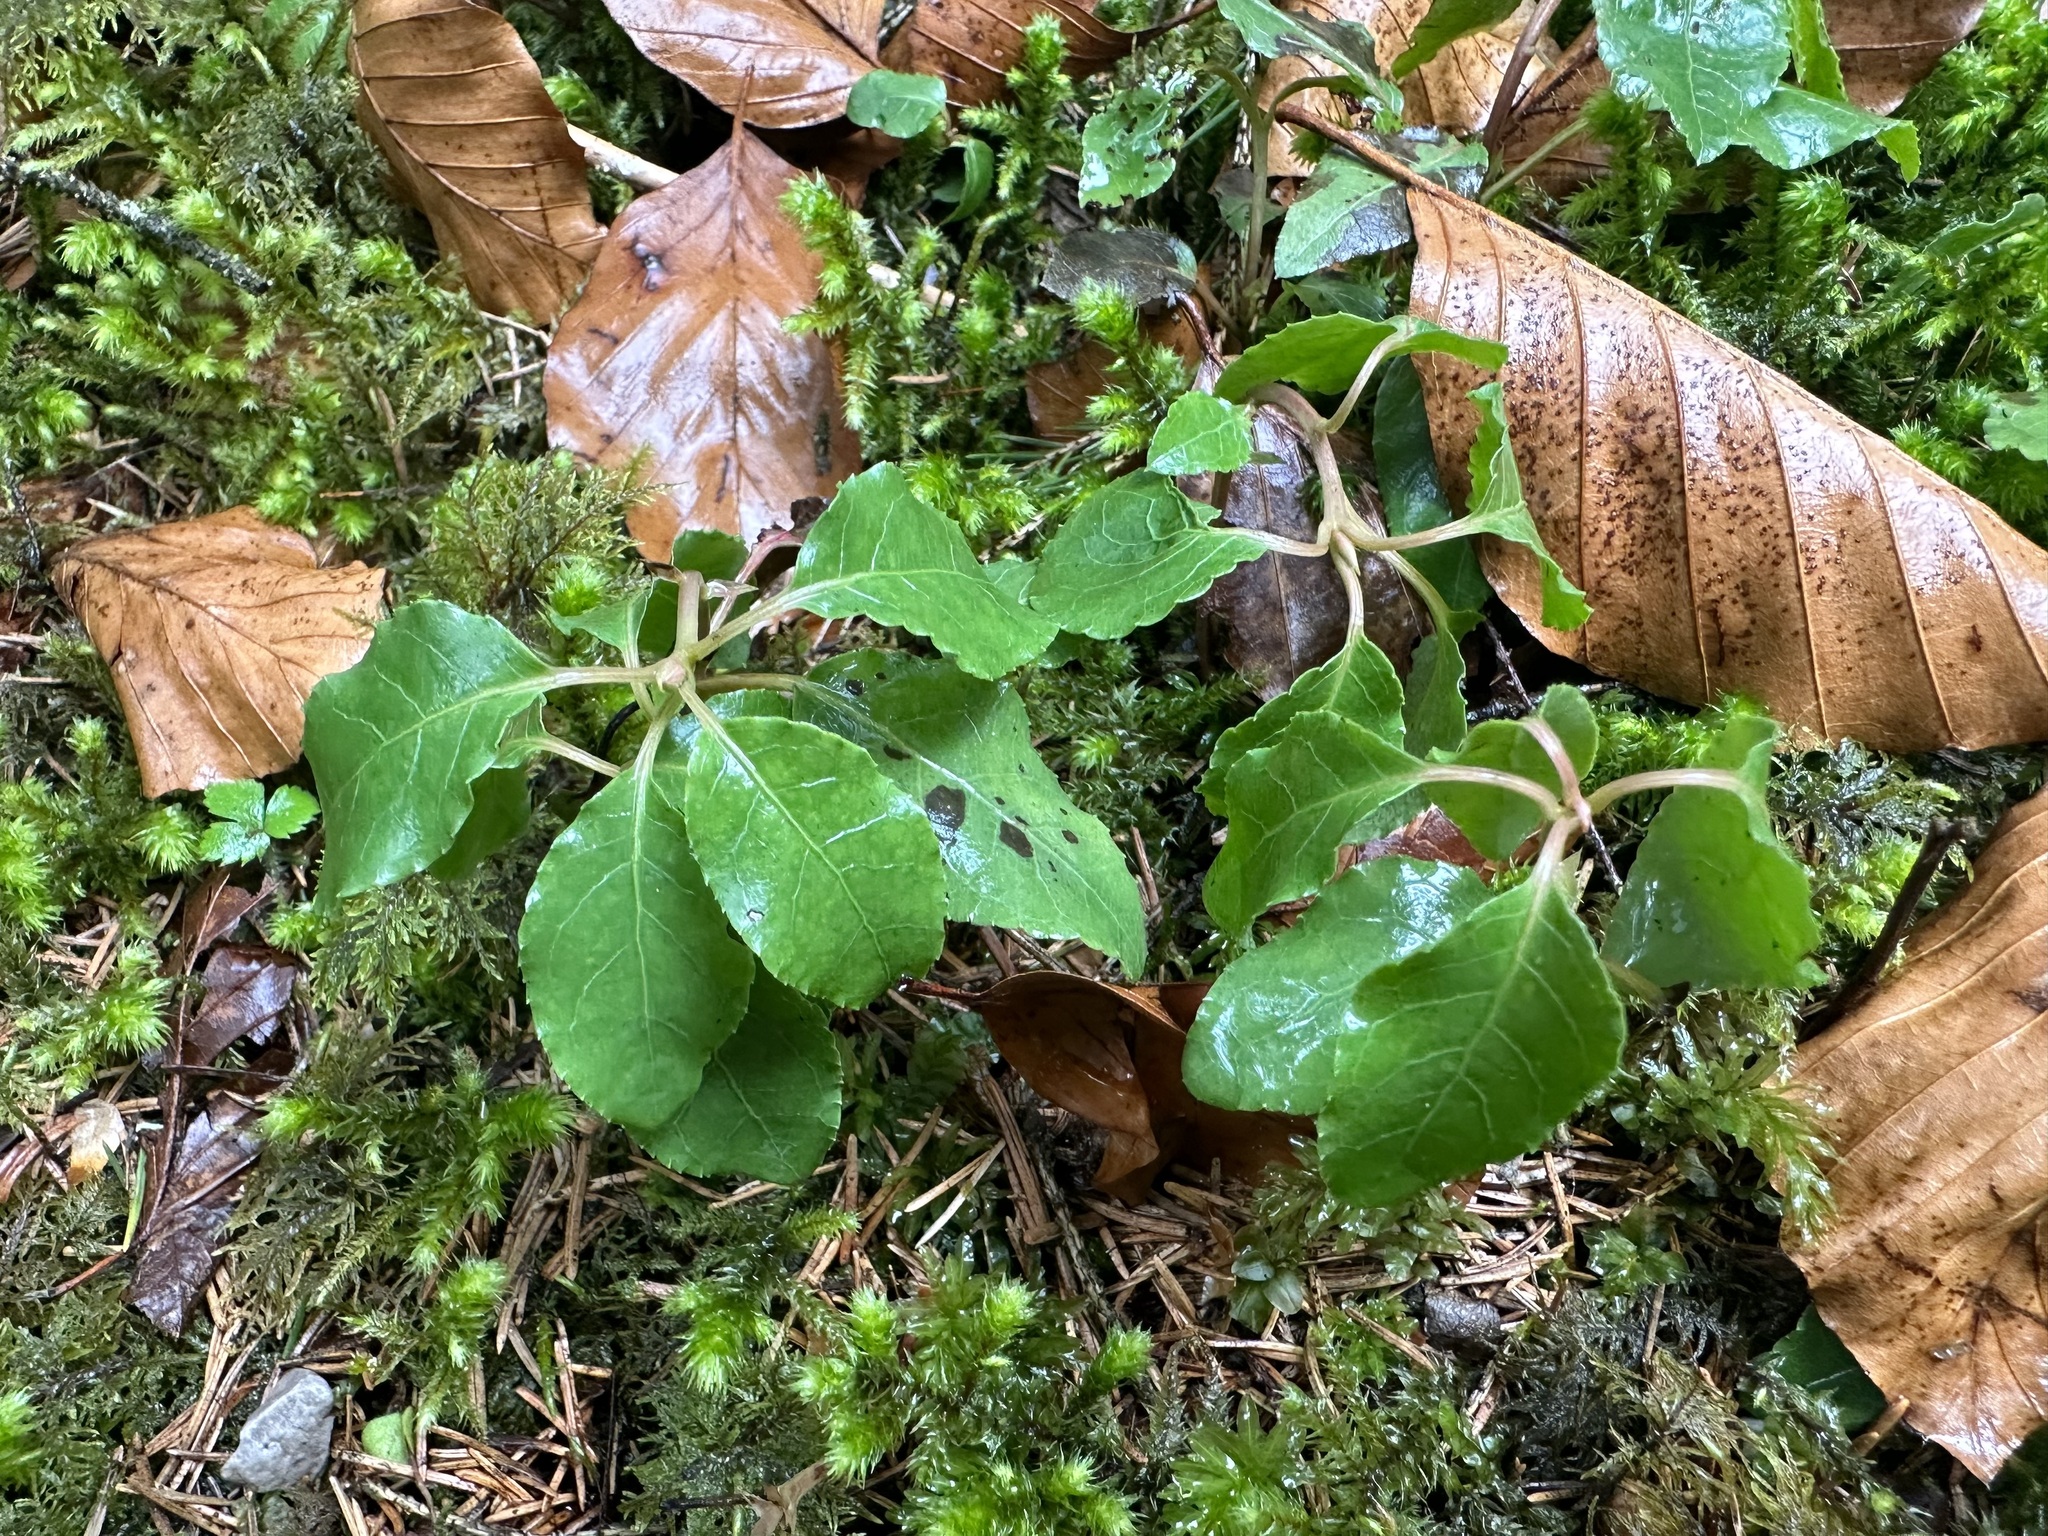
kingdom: Plantae
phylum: Tracheophyta
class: Magnoliopsida
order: Ericales
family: Ericaceae
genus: Orthilia
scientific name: Orthilia secunda
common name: One-sided orthilia
